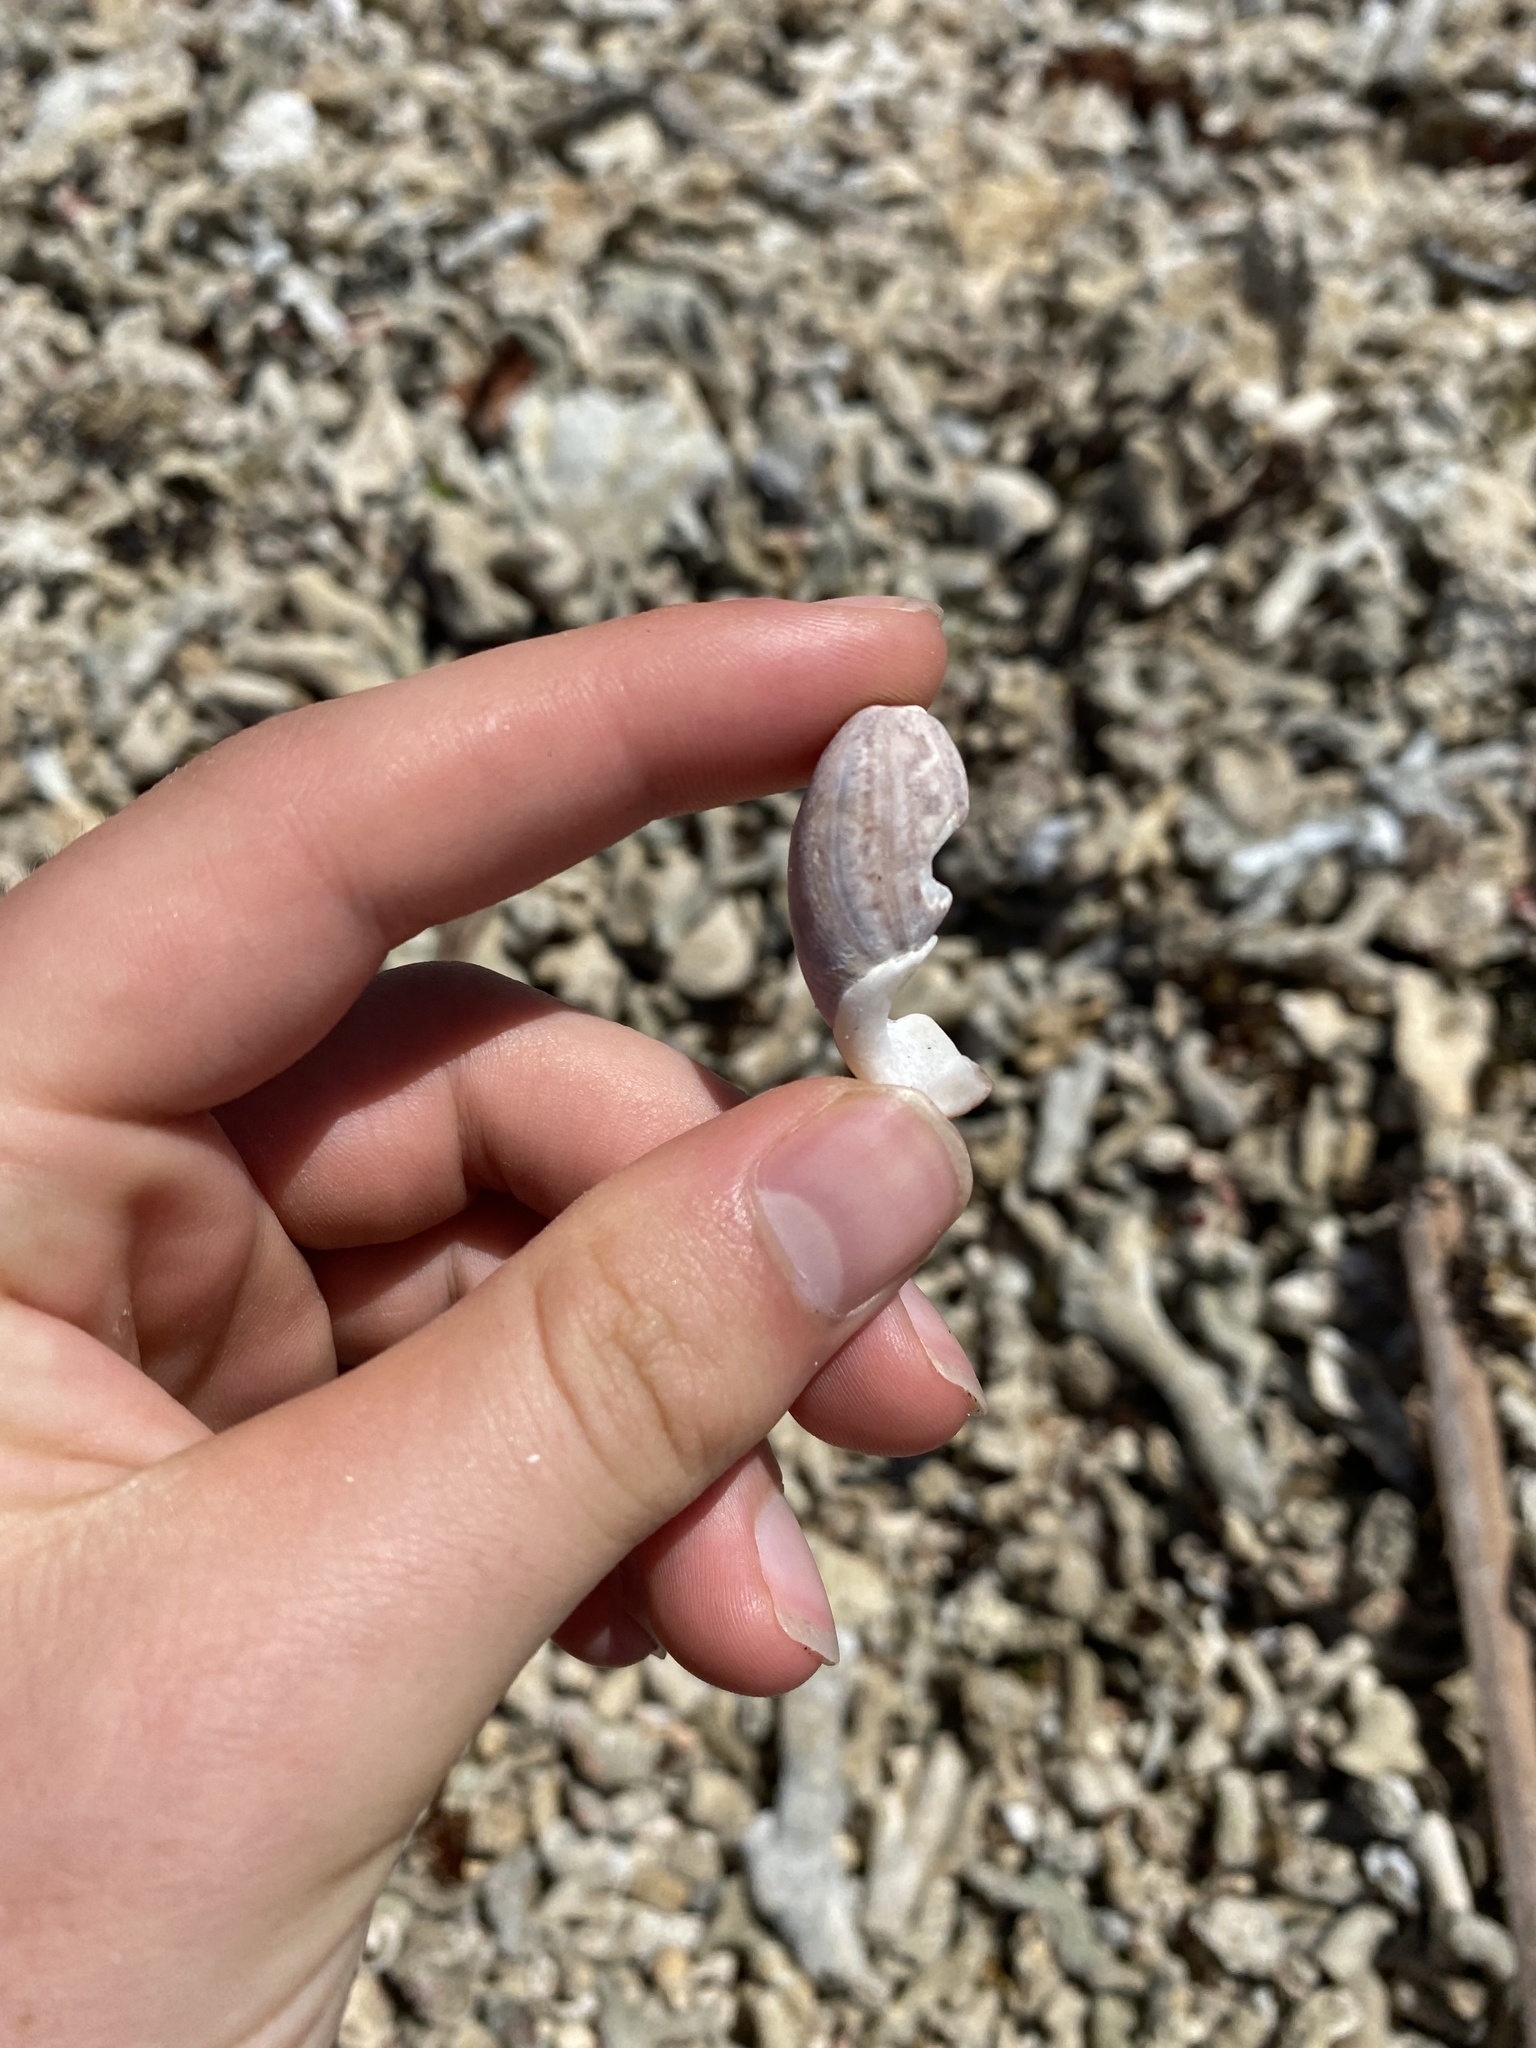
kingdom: Animalia
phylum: Mollusca
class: Gastropoda
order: Cephalaspidea
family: Bullidae
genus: Bulla
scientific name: Bulla occidentalis
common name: Common west-indian bubble
